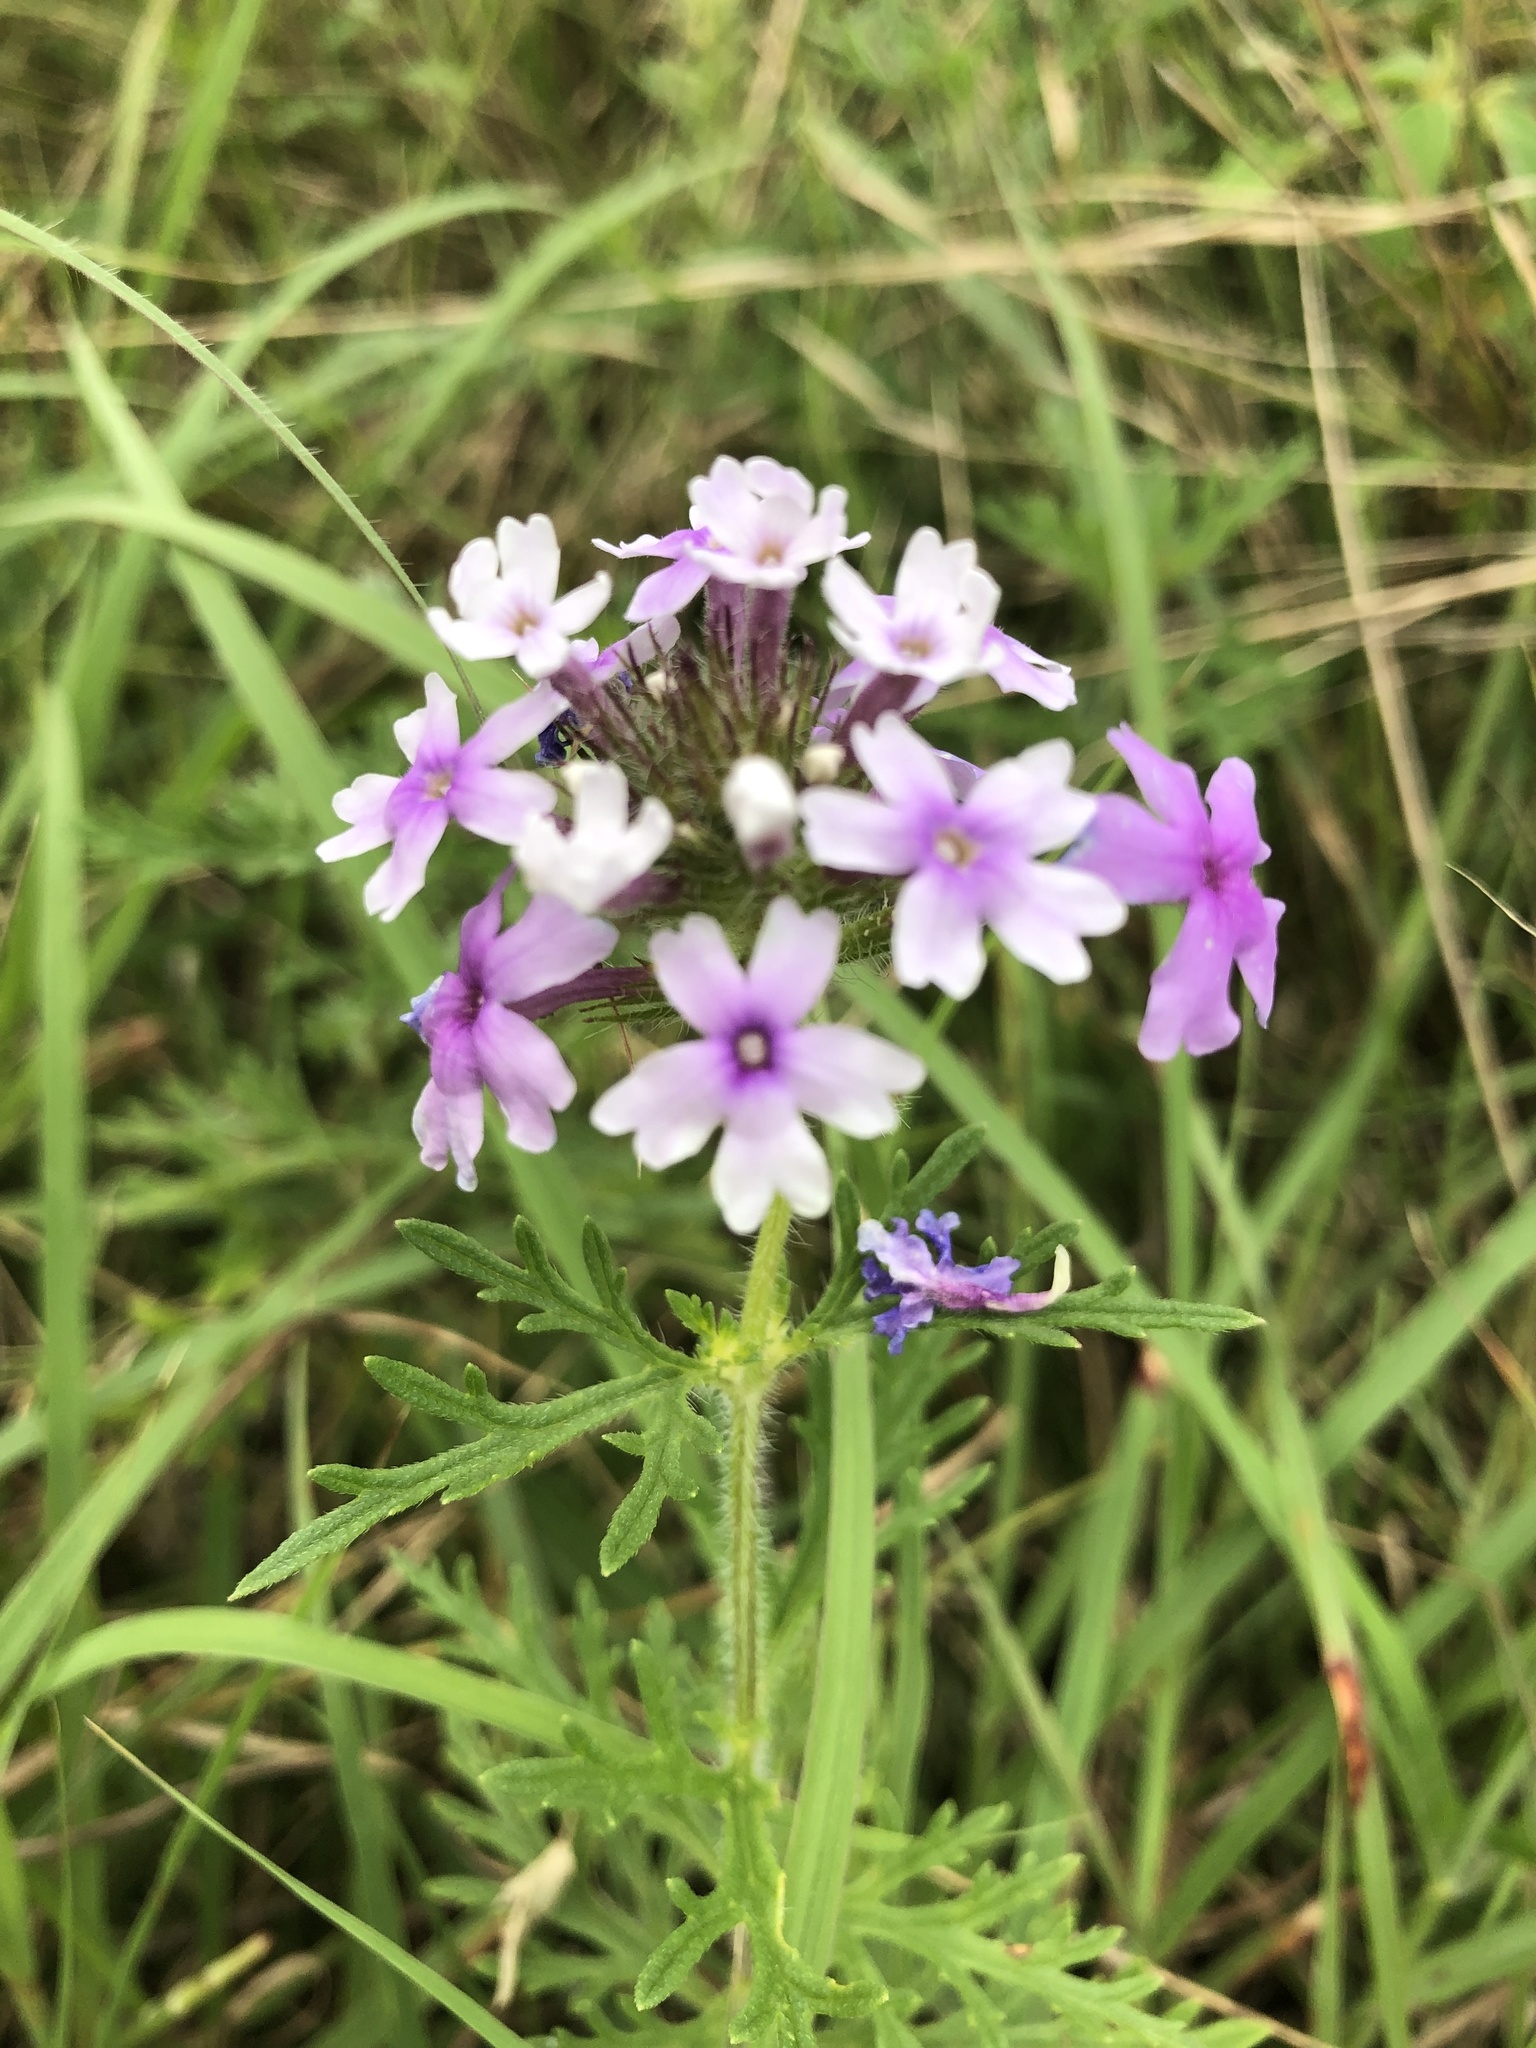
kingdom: Plantae
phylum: Tracheophyta
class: Magnoliopsida
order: Lamiales
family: Verbenaceae
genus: Verbena
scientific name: Verbena bipinnatifida
